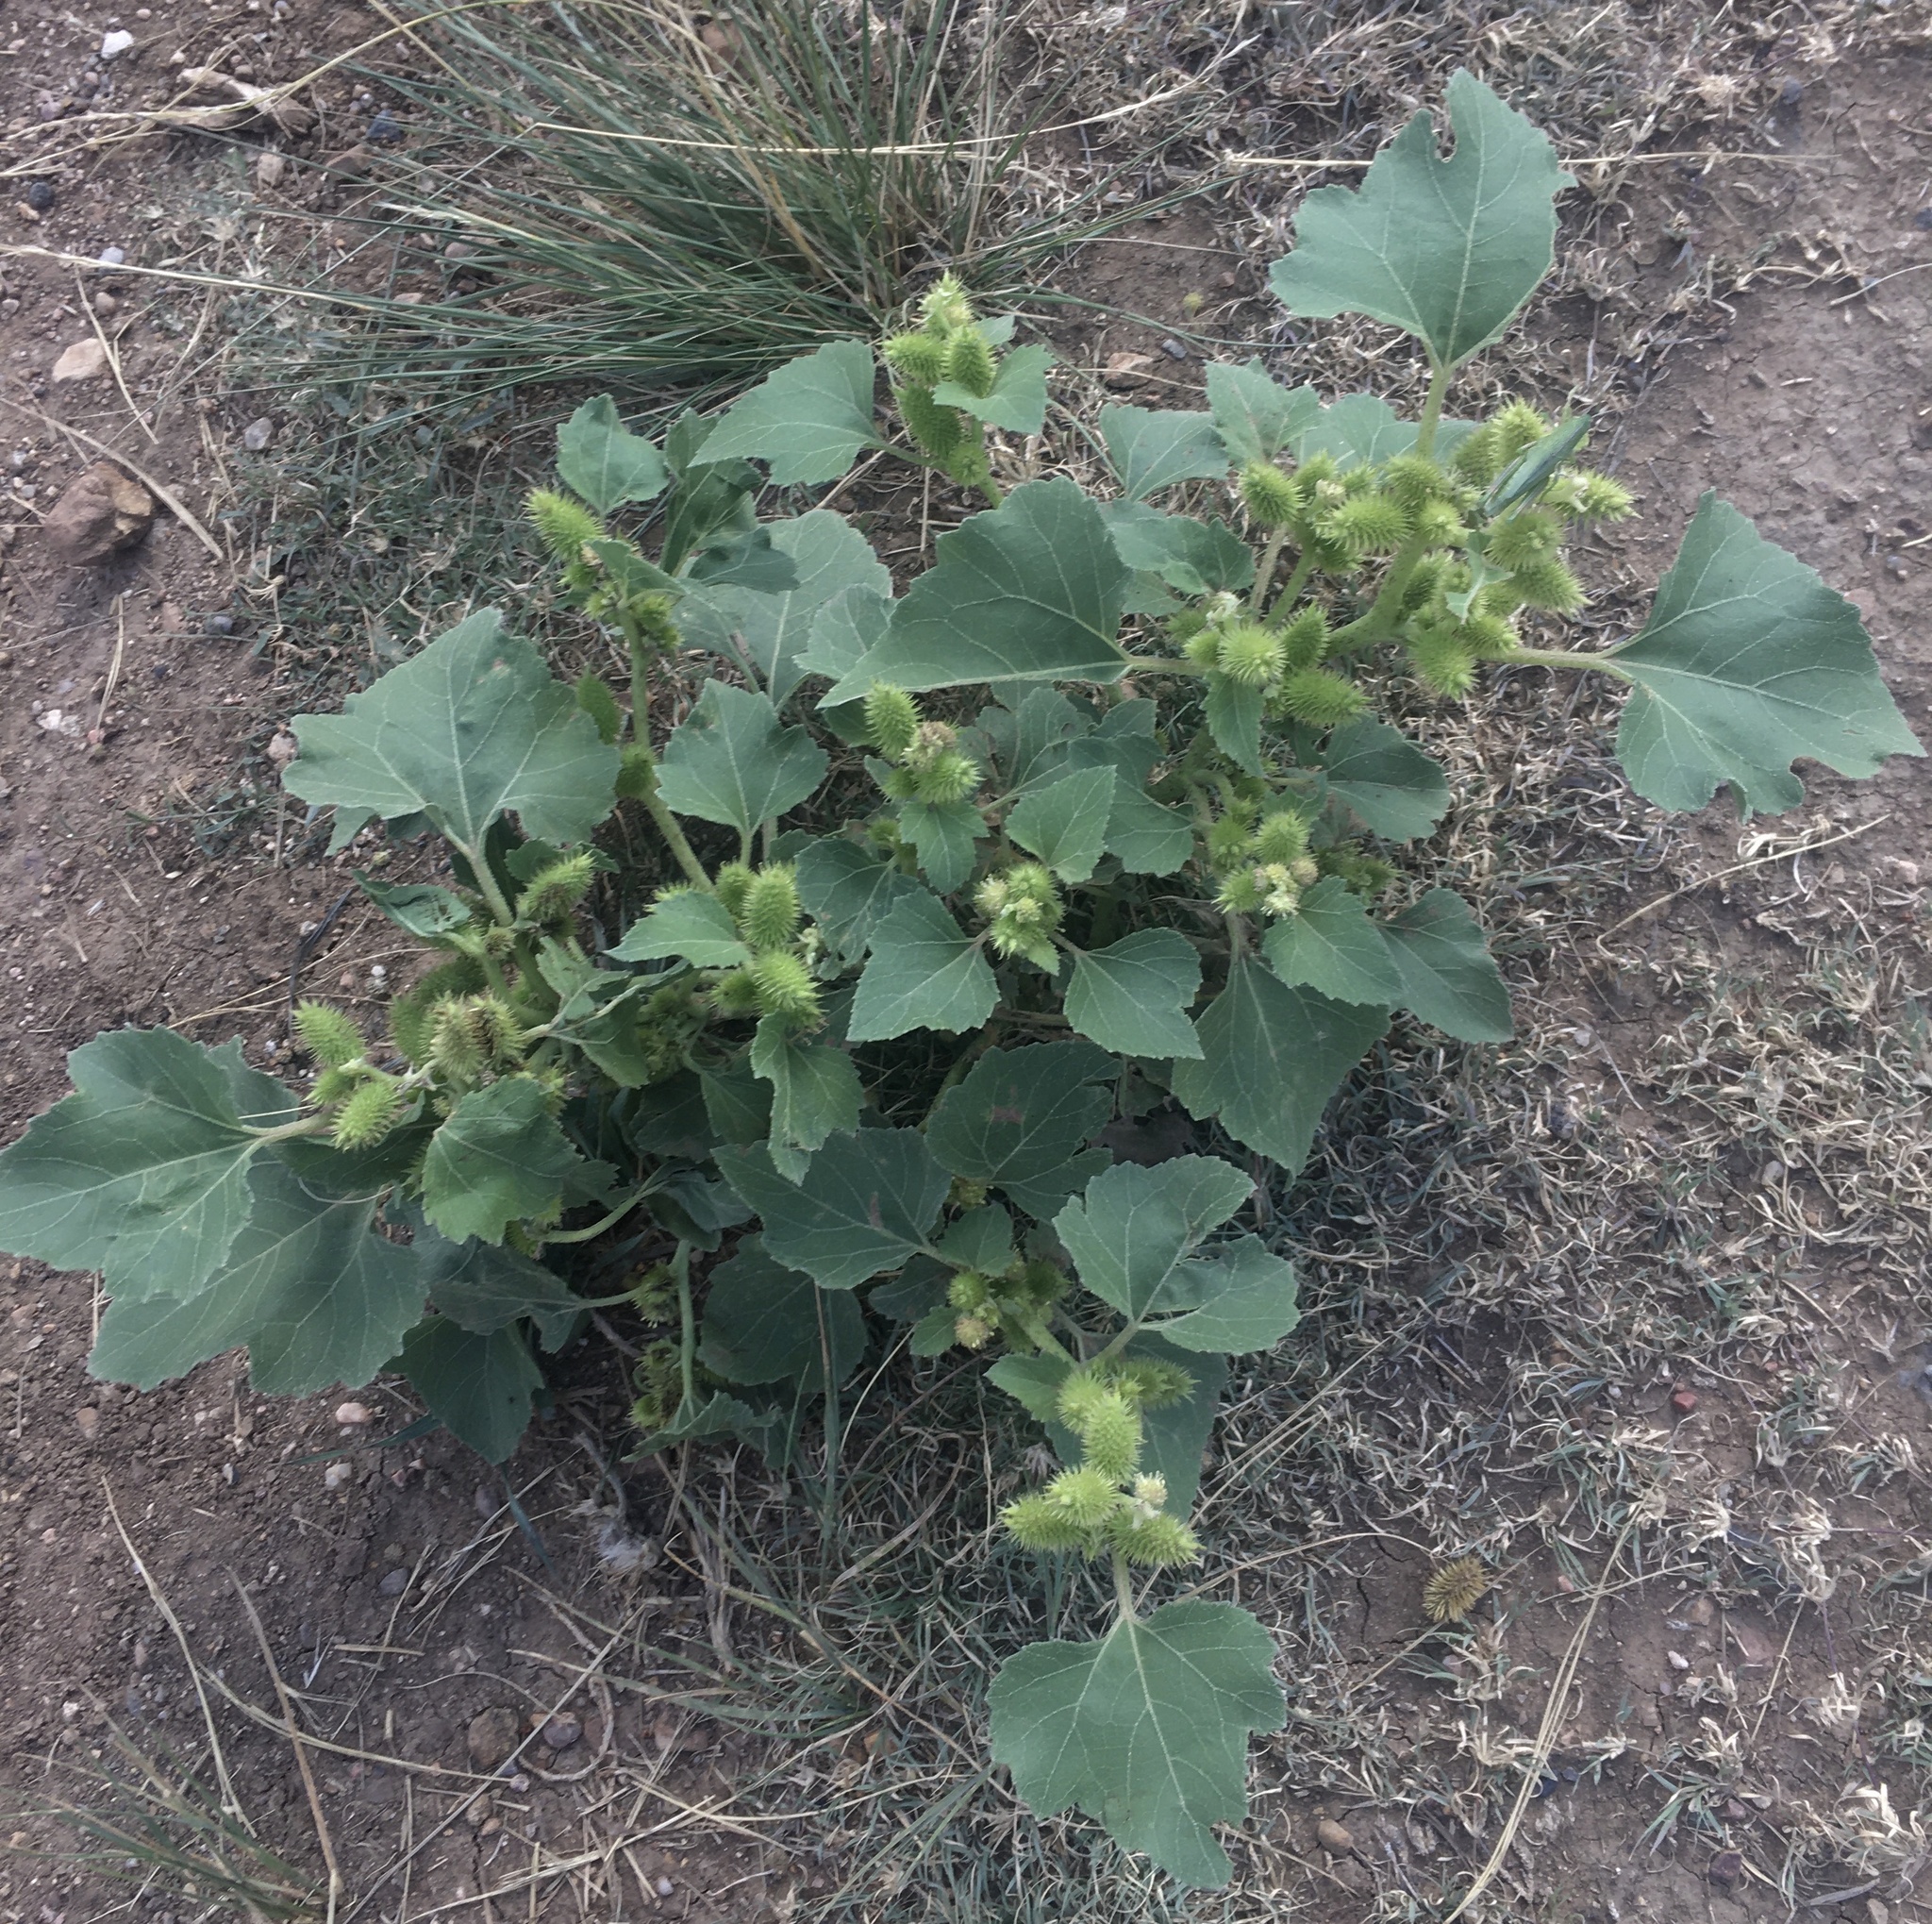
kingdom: Plantae
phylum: Tracheophyta
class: Magnoliopsida
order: Asterales
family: Asteraceae
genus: Xanthium
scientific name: Xanthium strumarium
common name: Rough cocklebur
